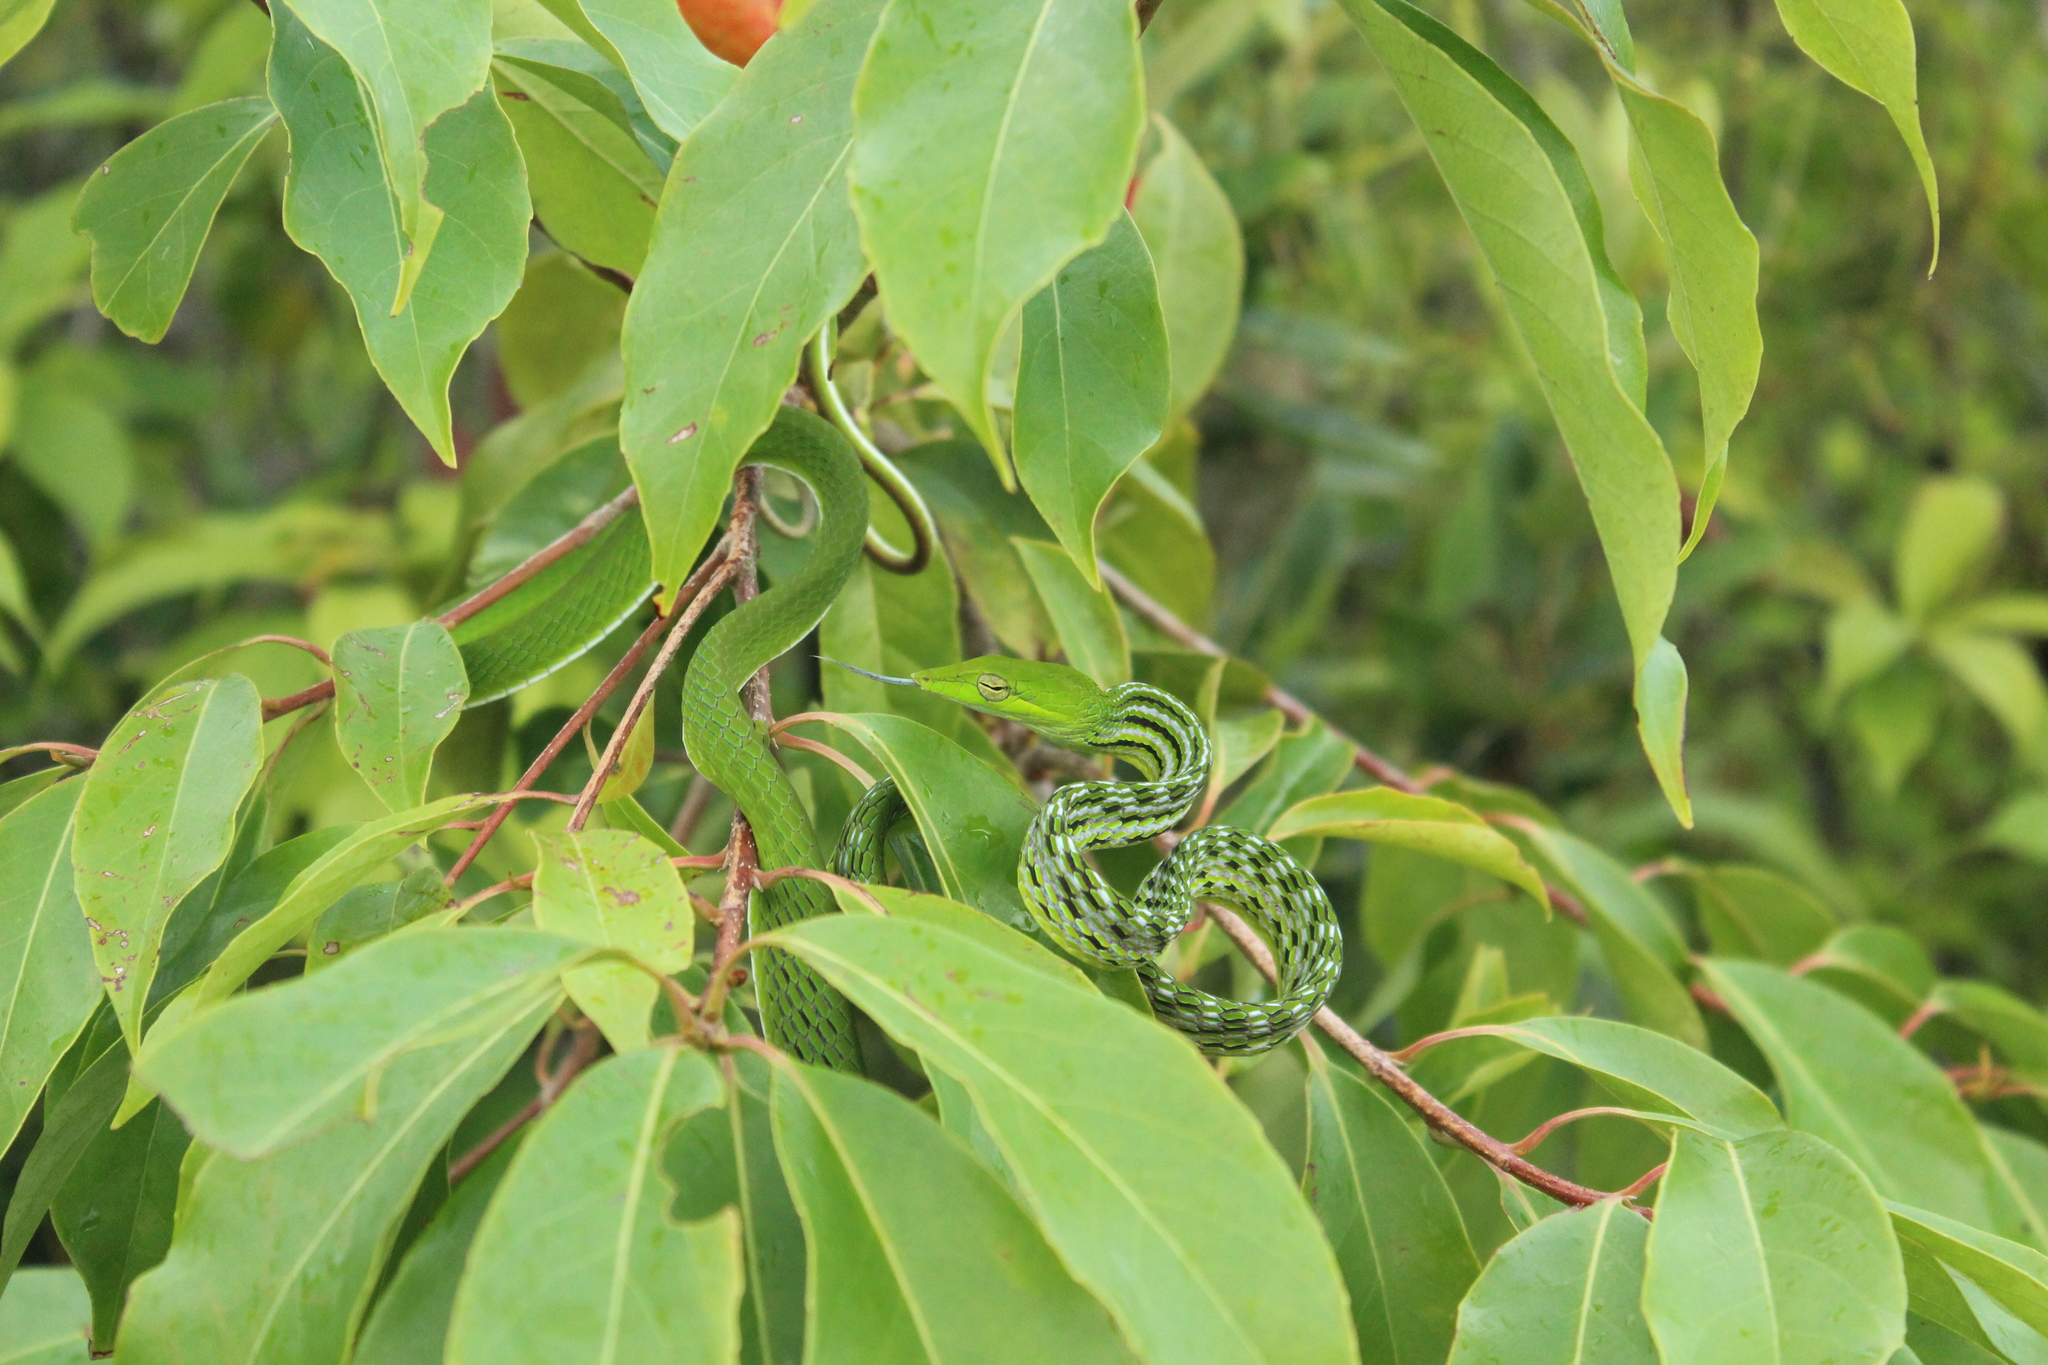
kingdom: Animalia
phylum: Chordata
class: Squamata
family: Colubridae
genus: Ahaetulla
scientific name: Ahaetulla prasina
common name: Oriental whip snake
